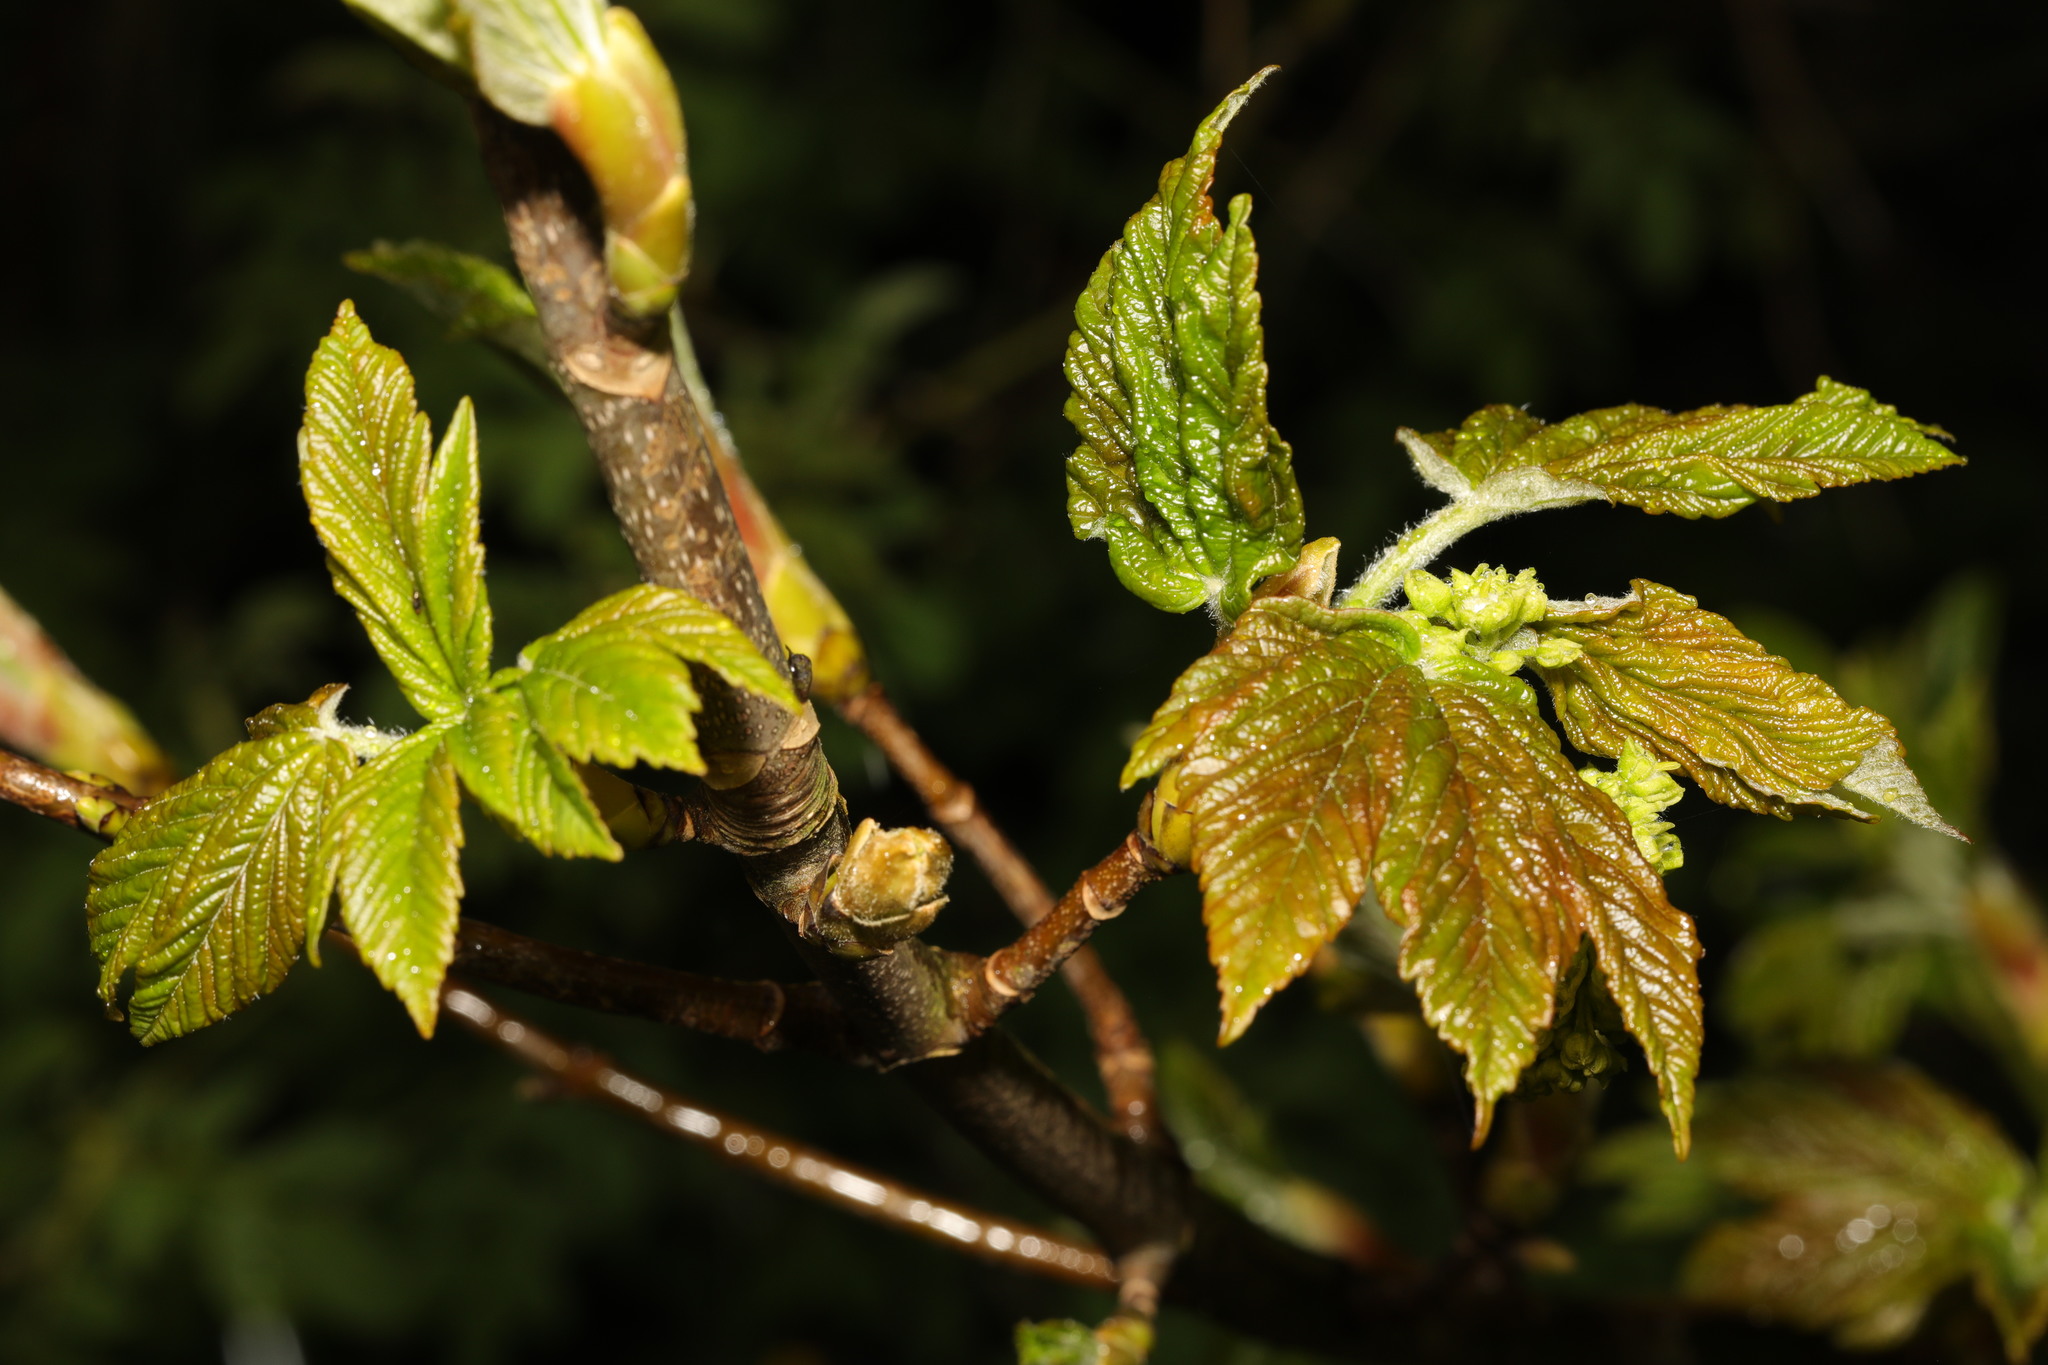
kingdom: Plantae
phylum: Tracheophyta
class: Magnoliopsida
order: Sapindales
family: Sapindaceae
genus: Acer
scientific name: Acer pseudoplatanus
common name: Sycamore
